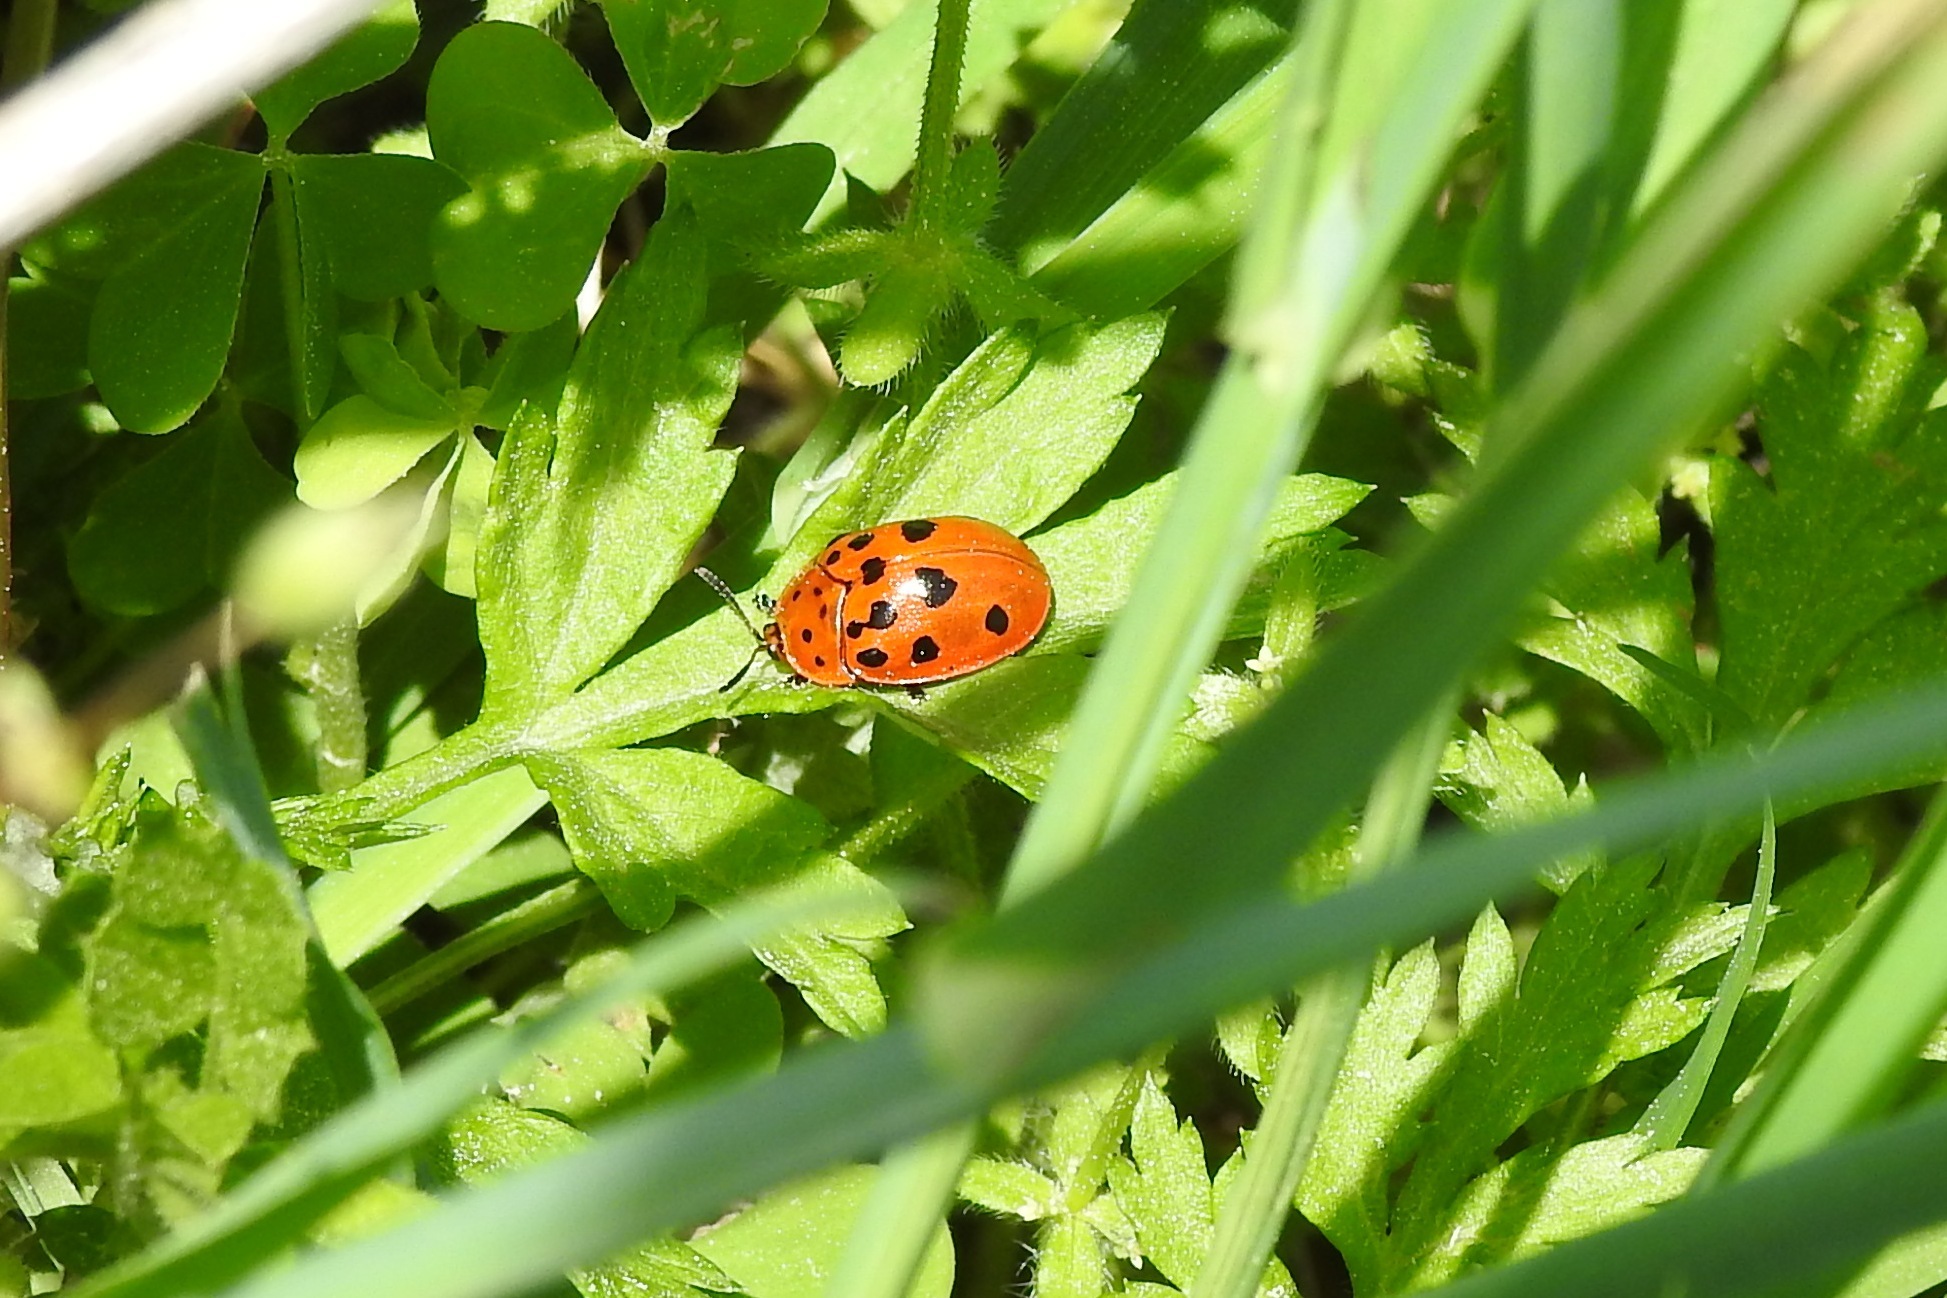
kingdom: Animalia
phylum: Arthropoda
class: Insecta
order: Coleoptera
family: Chrysomelidae
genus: Chelymorpha
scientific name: Chelymorpha cassidea
